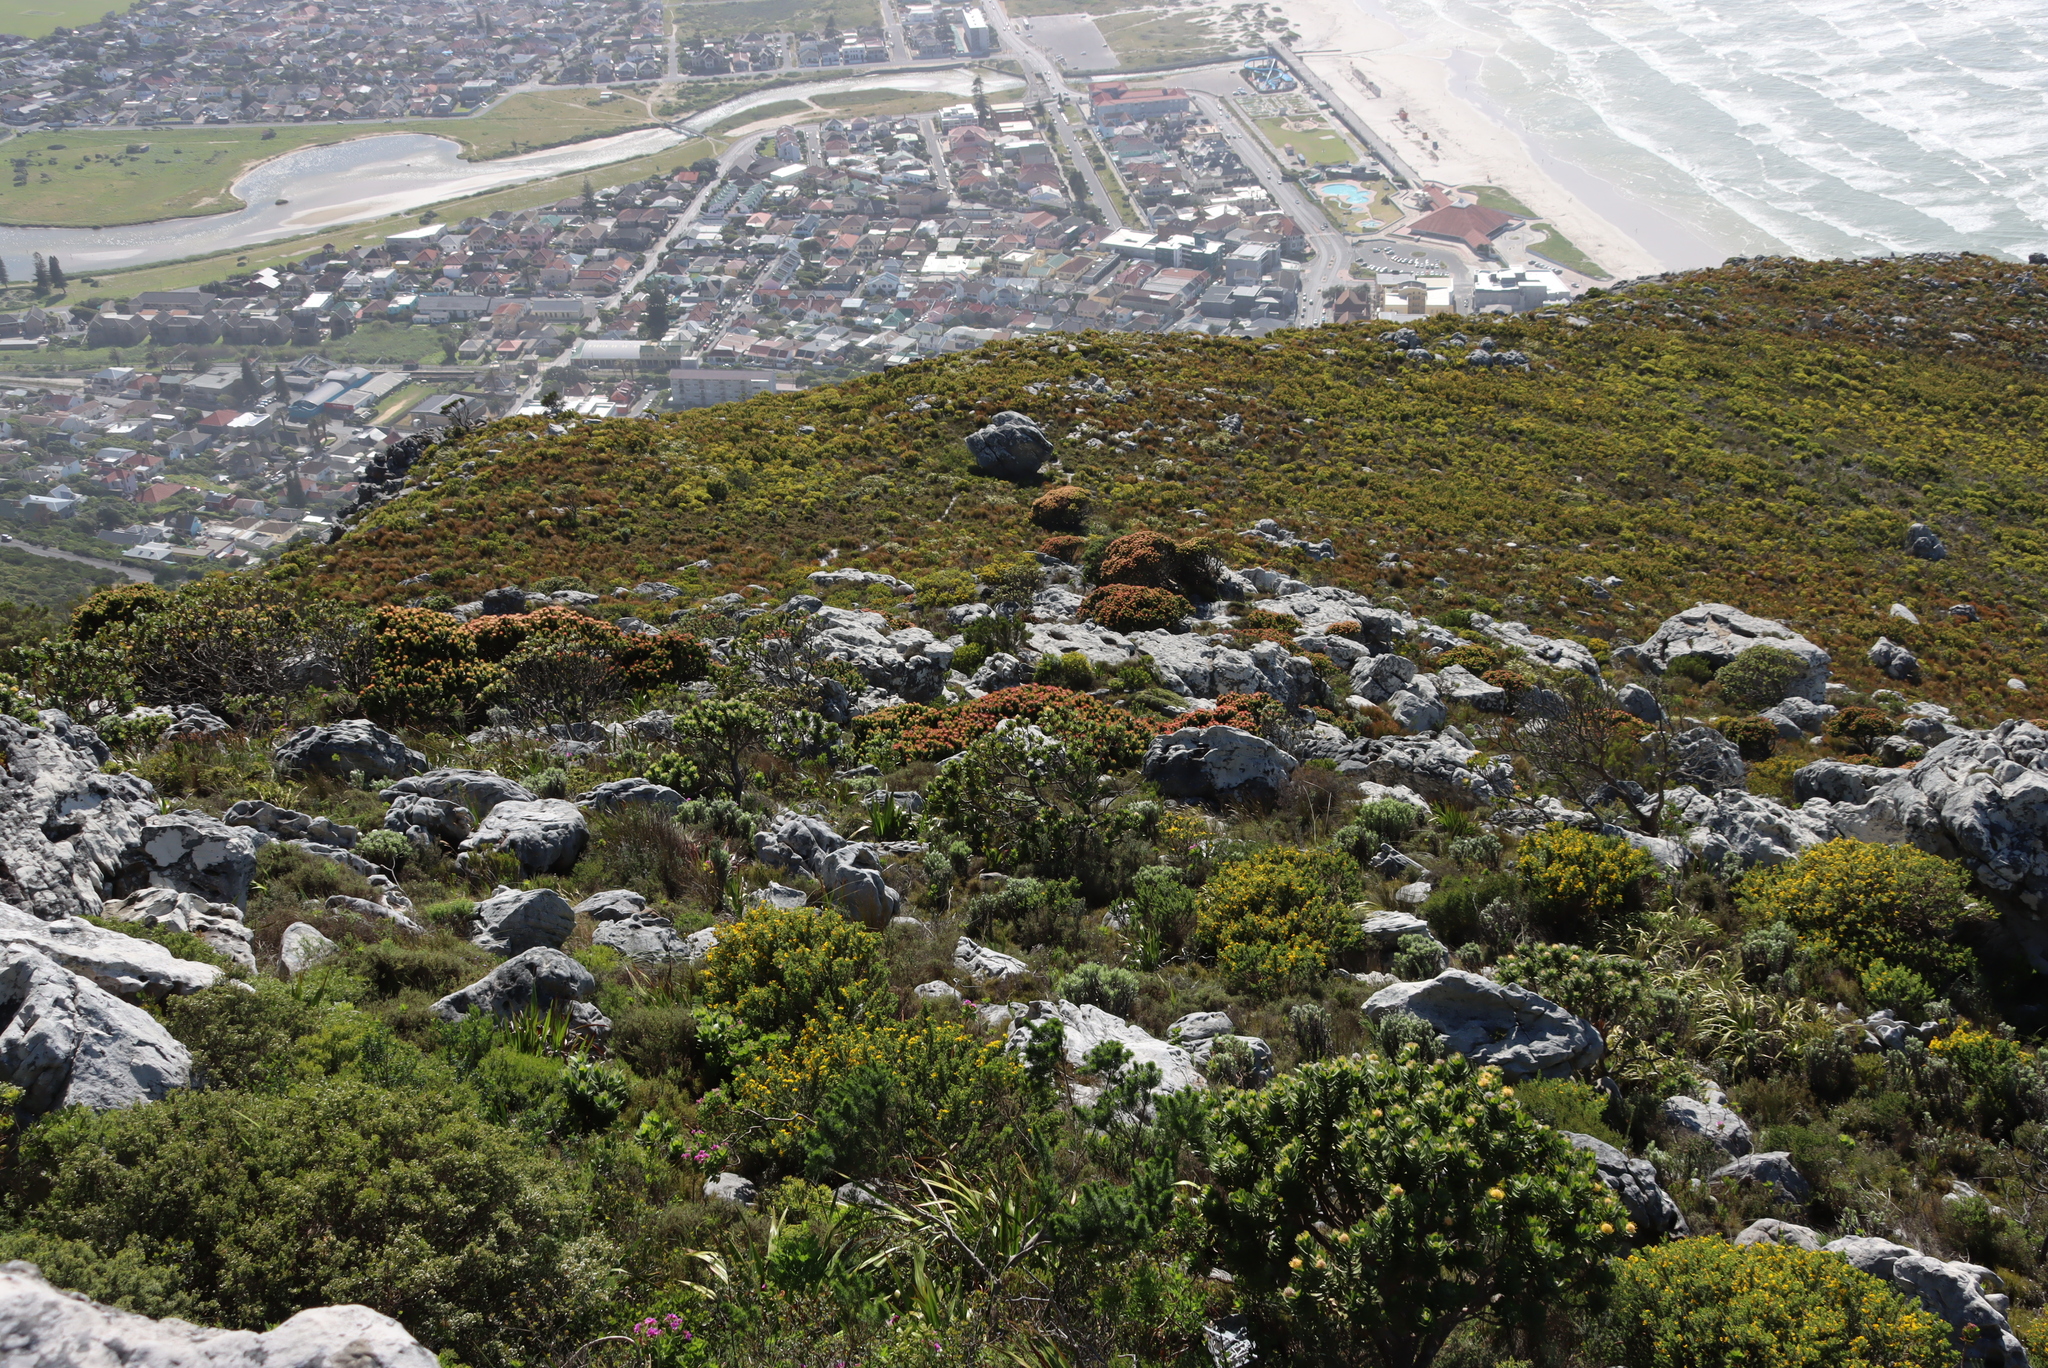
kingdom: Plantae
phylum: Tracheophyta
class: Magnoliopsida
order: Proteales
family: Proteaceae
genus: Mimetes
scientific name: Mimetes fimbriifolius
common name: Fringed bottlebrush
